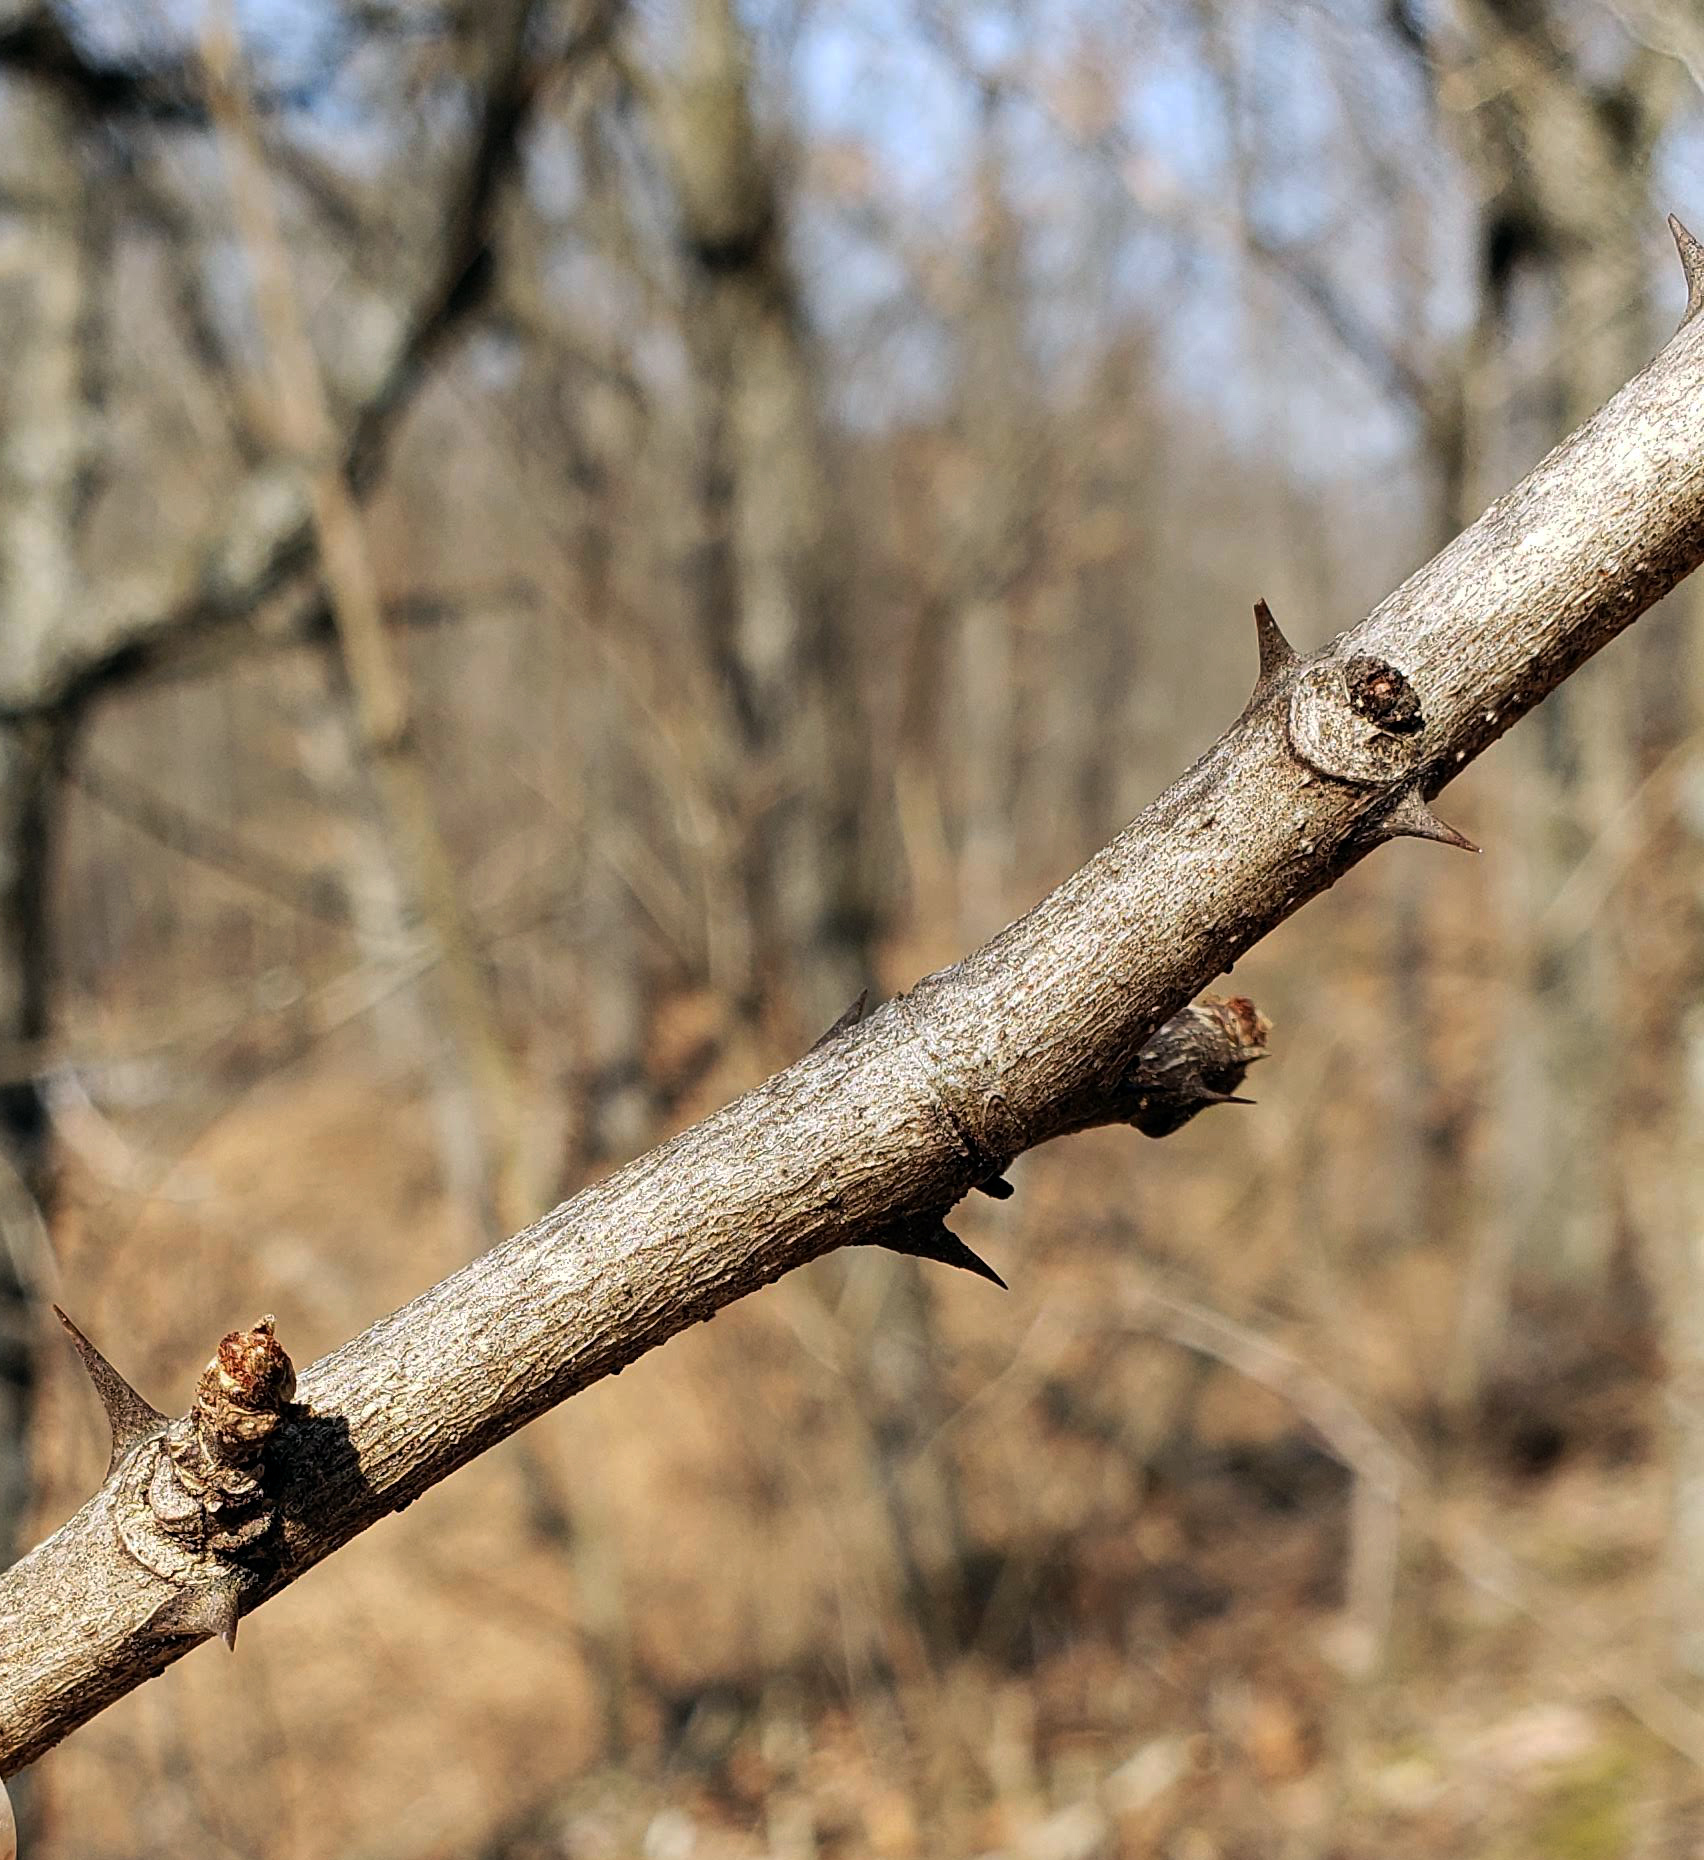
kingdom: Plantae
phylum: Tracheophyta
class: Magnoliopsida
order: Sapindales
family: Rutaceae
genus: Zanthoxylum
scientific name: Zanthoxylum americanum
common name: Northern prickly-ash
